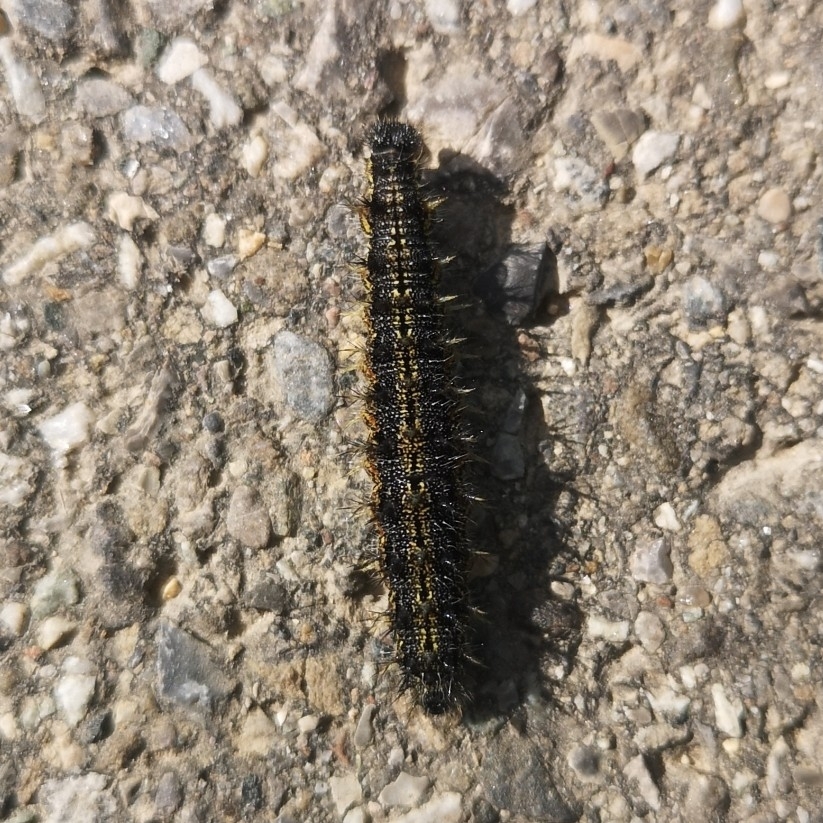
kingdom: Animalia
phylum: Arthropoda
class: Insecta
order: Lepidoptera
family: Nymphalidae
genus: Aglais
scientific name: Aglais urticae
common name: Small tortoiseshell
